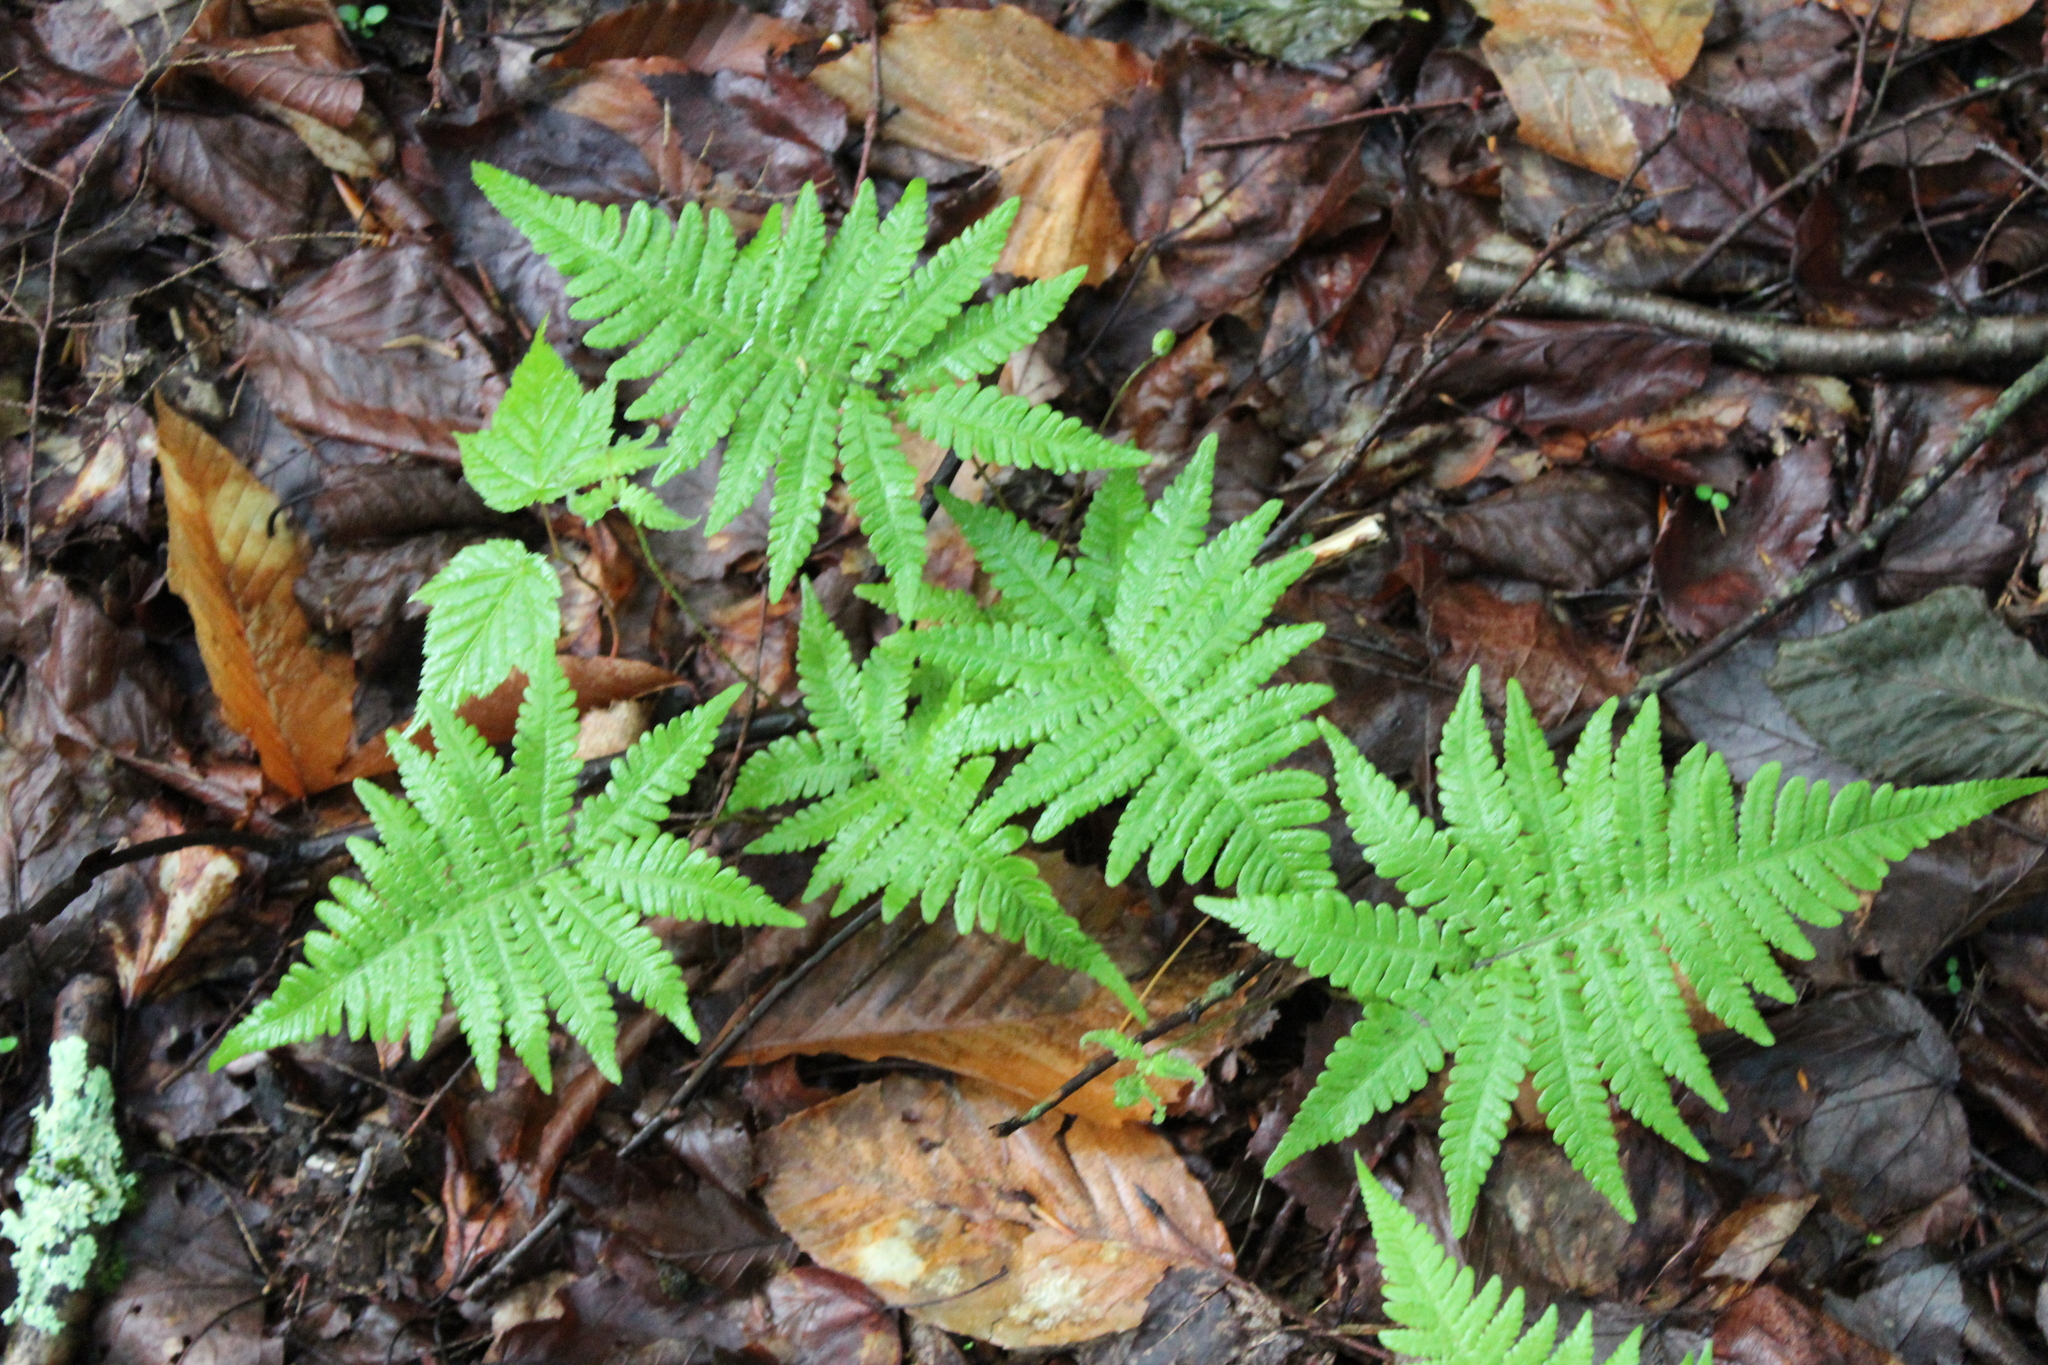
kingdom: Plantae
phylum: Tracheophyta
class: Polypodiopsida
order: Polypodiales
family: Thelypteridaceae
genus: Phegopteris
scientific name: Phegopteris connectilis
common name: Beech fern
